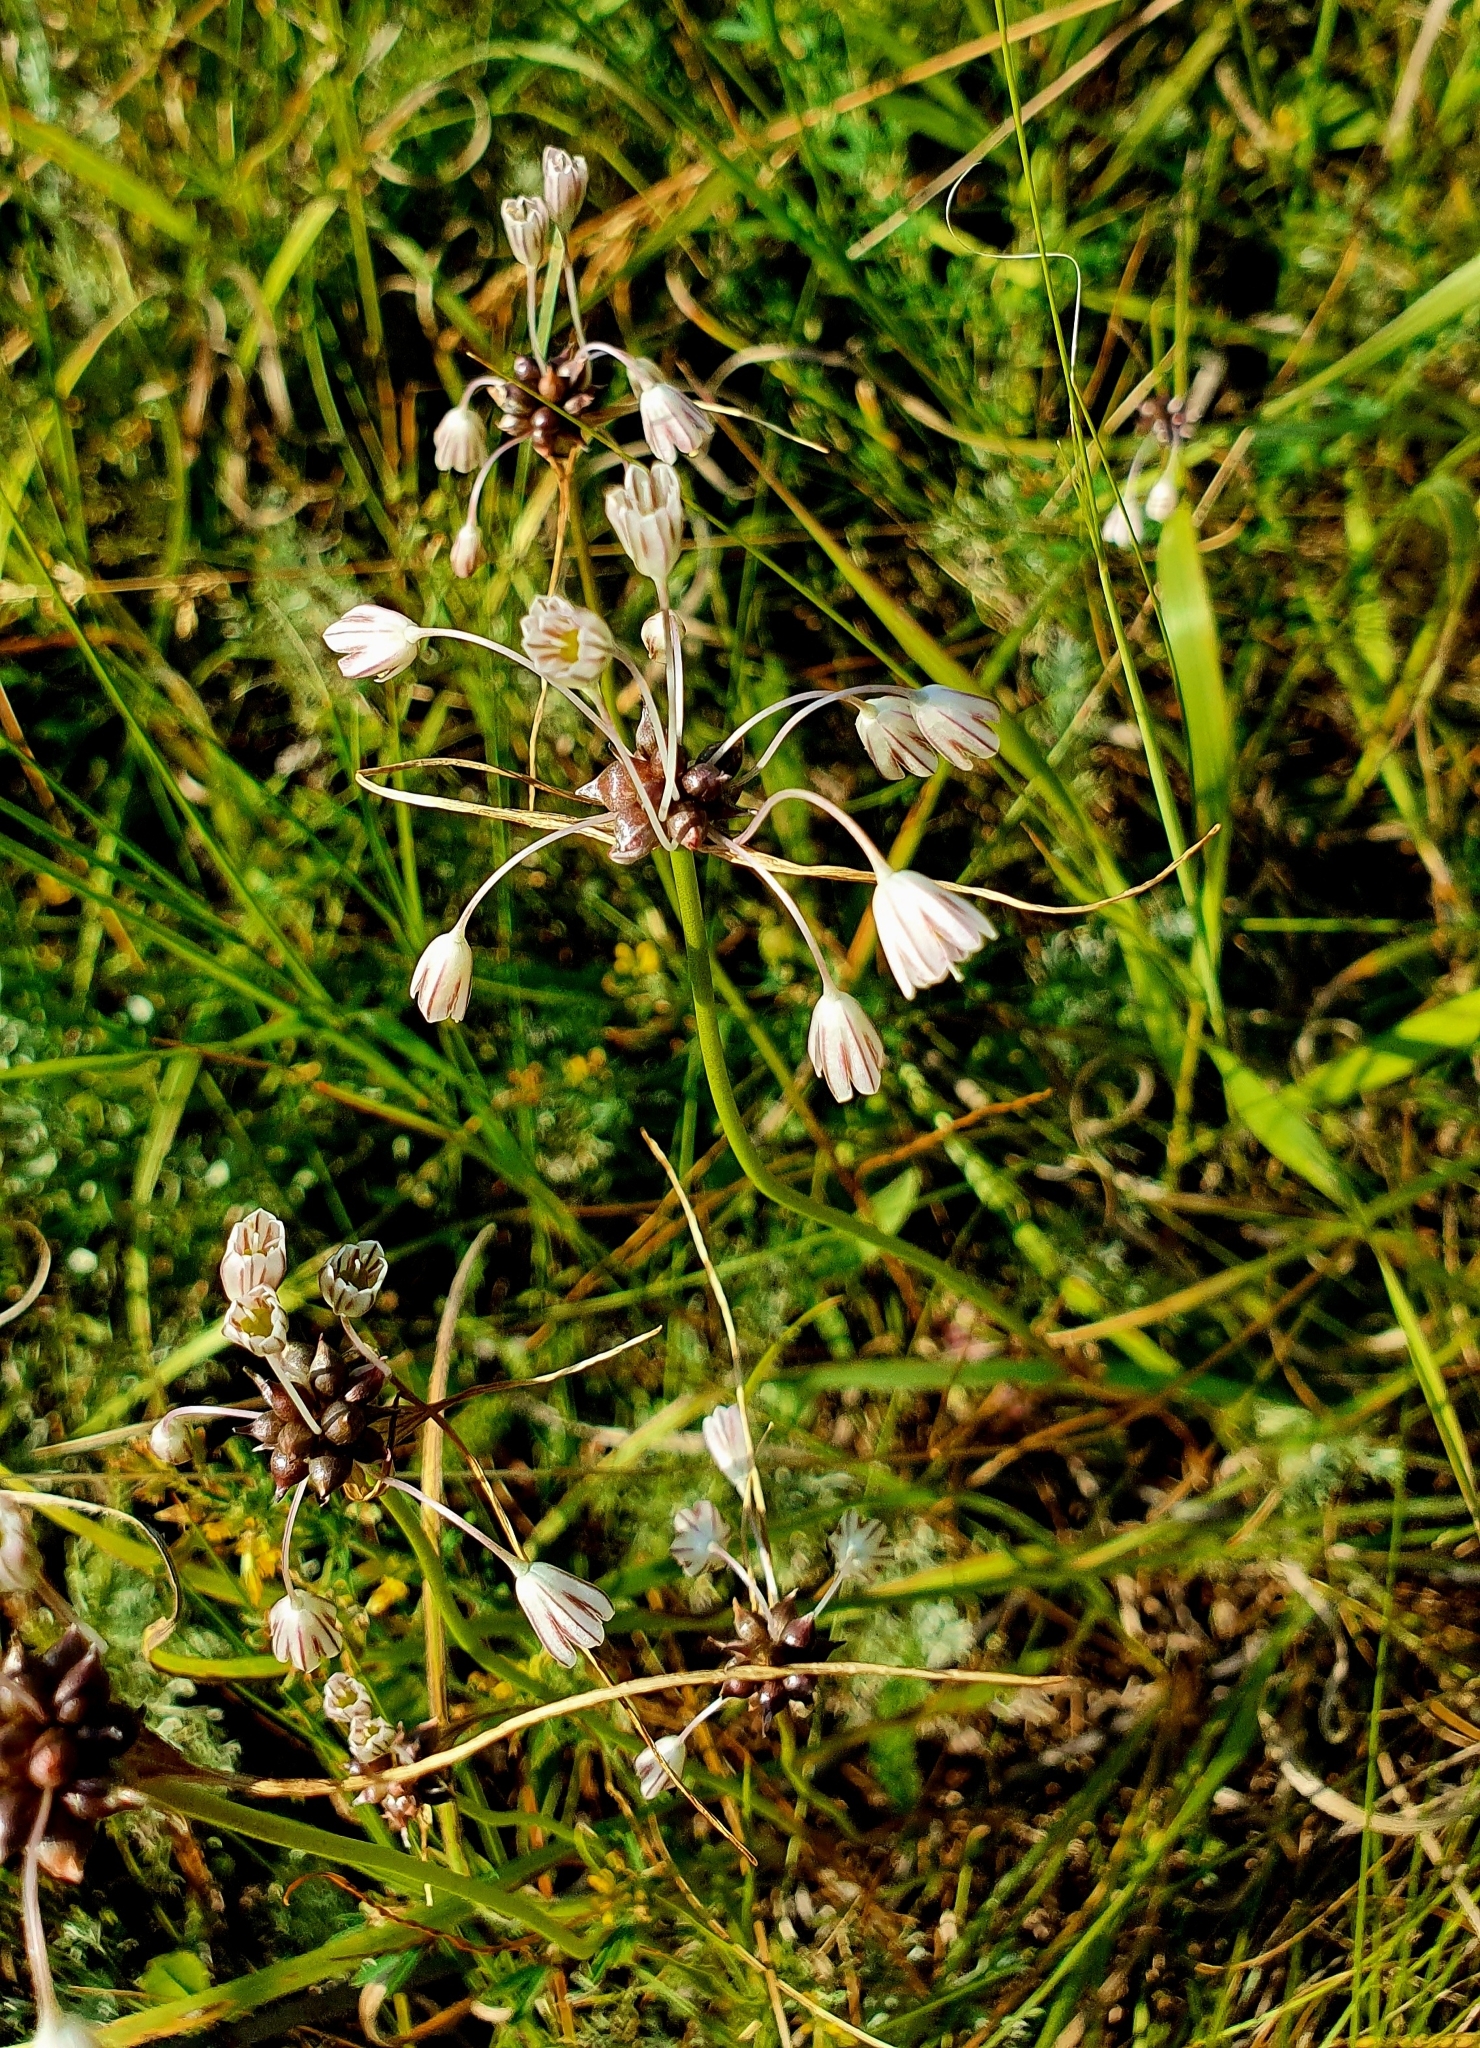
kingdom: Plantae
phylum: Tracheophyta
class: Liliopsida
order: Asparagales
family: Amaryllidaceae
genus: Allium
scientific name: Allium oleraceum
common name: Field garlic
